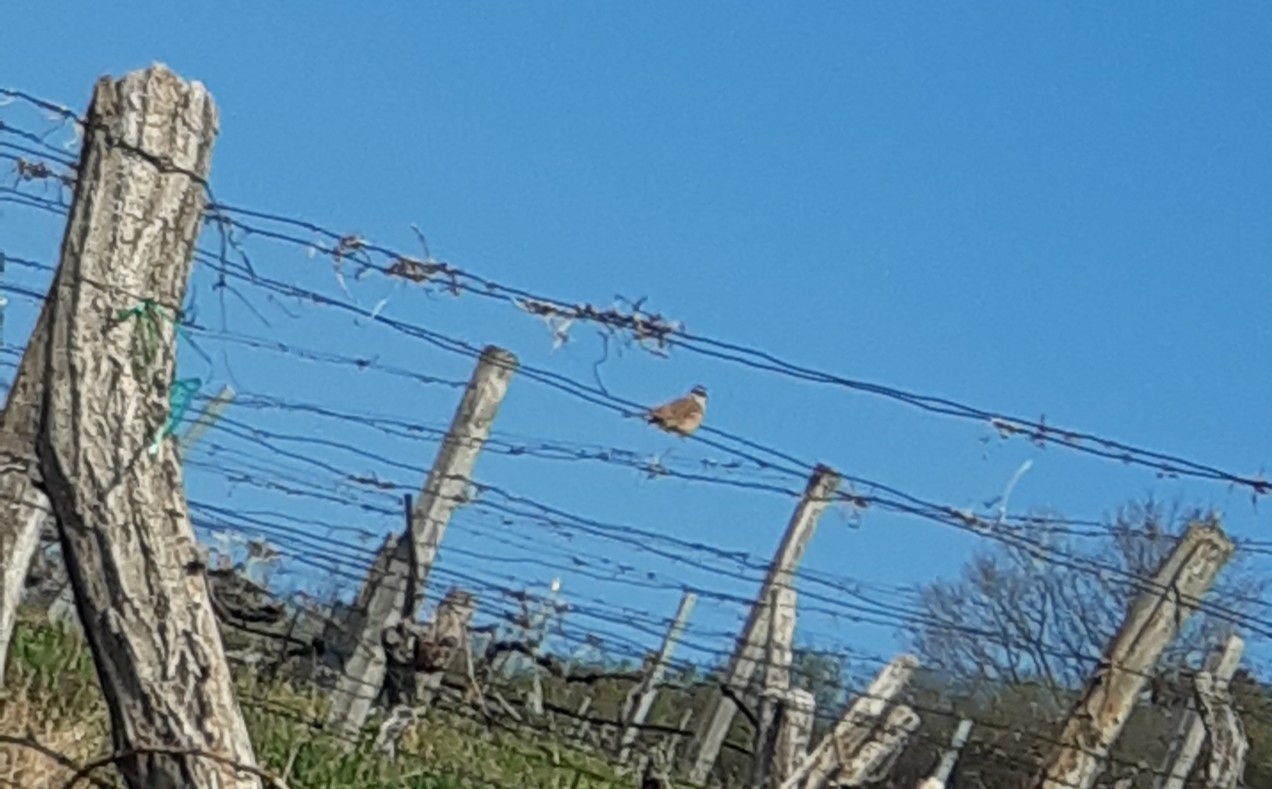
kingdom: Animalia
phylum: Chordata
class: Aves
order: Passeriformes
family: Emberizidae
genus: Emberiza
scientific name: Emberiza cia
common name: Rock bunting
